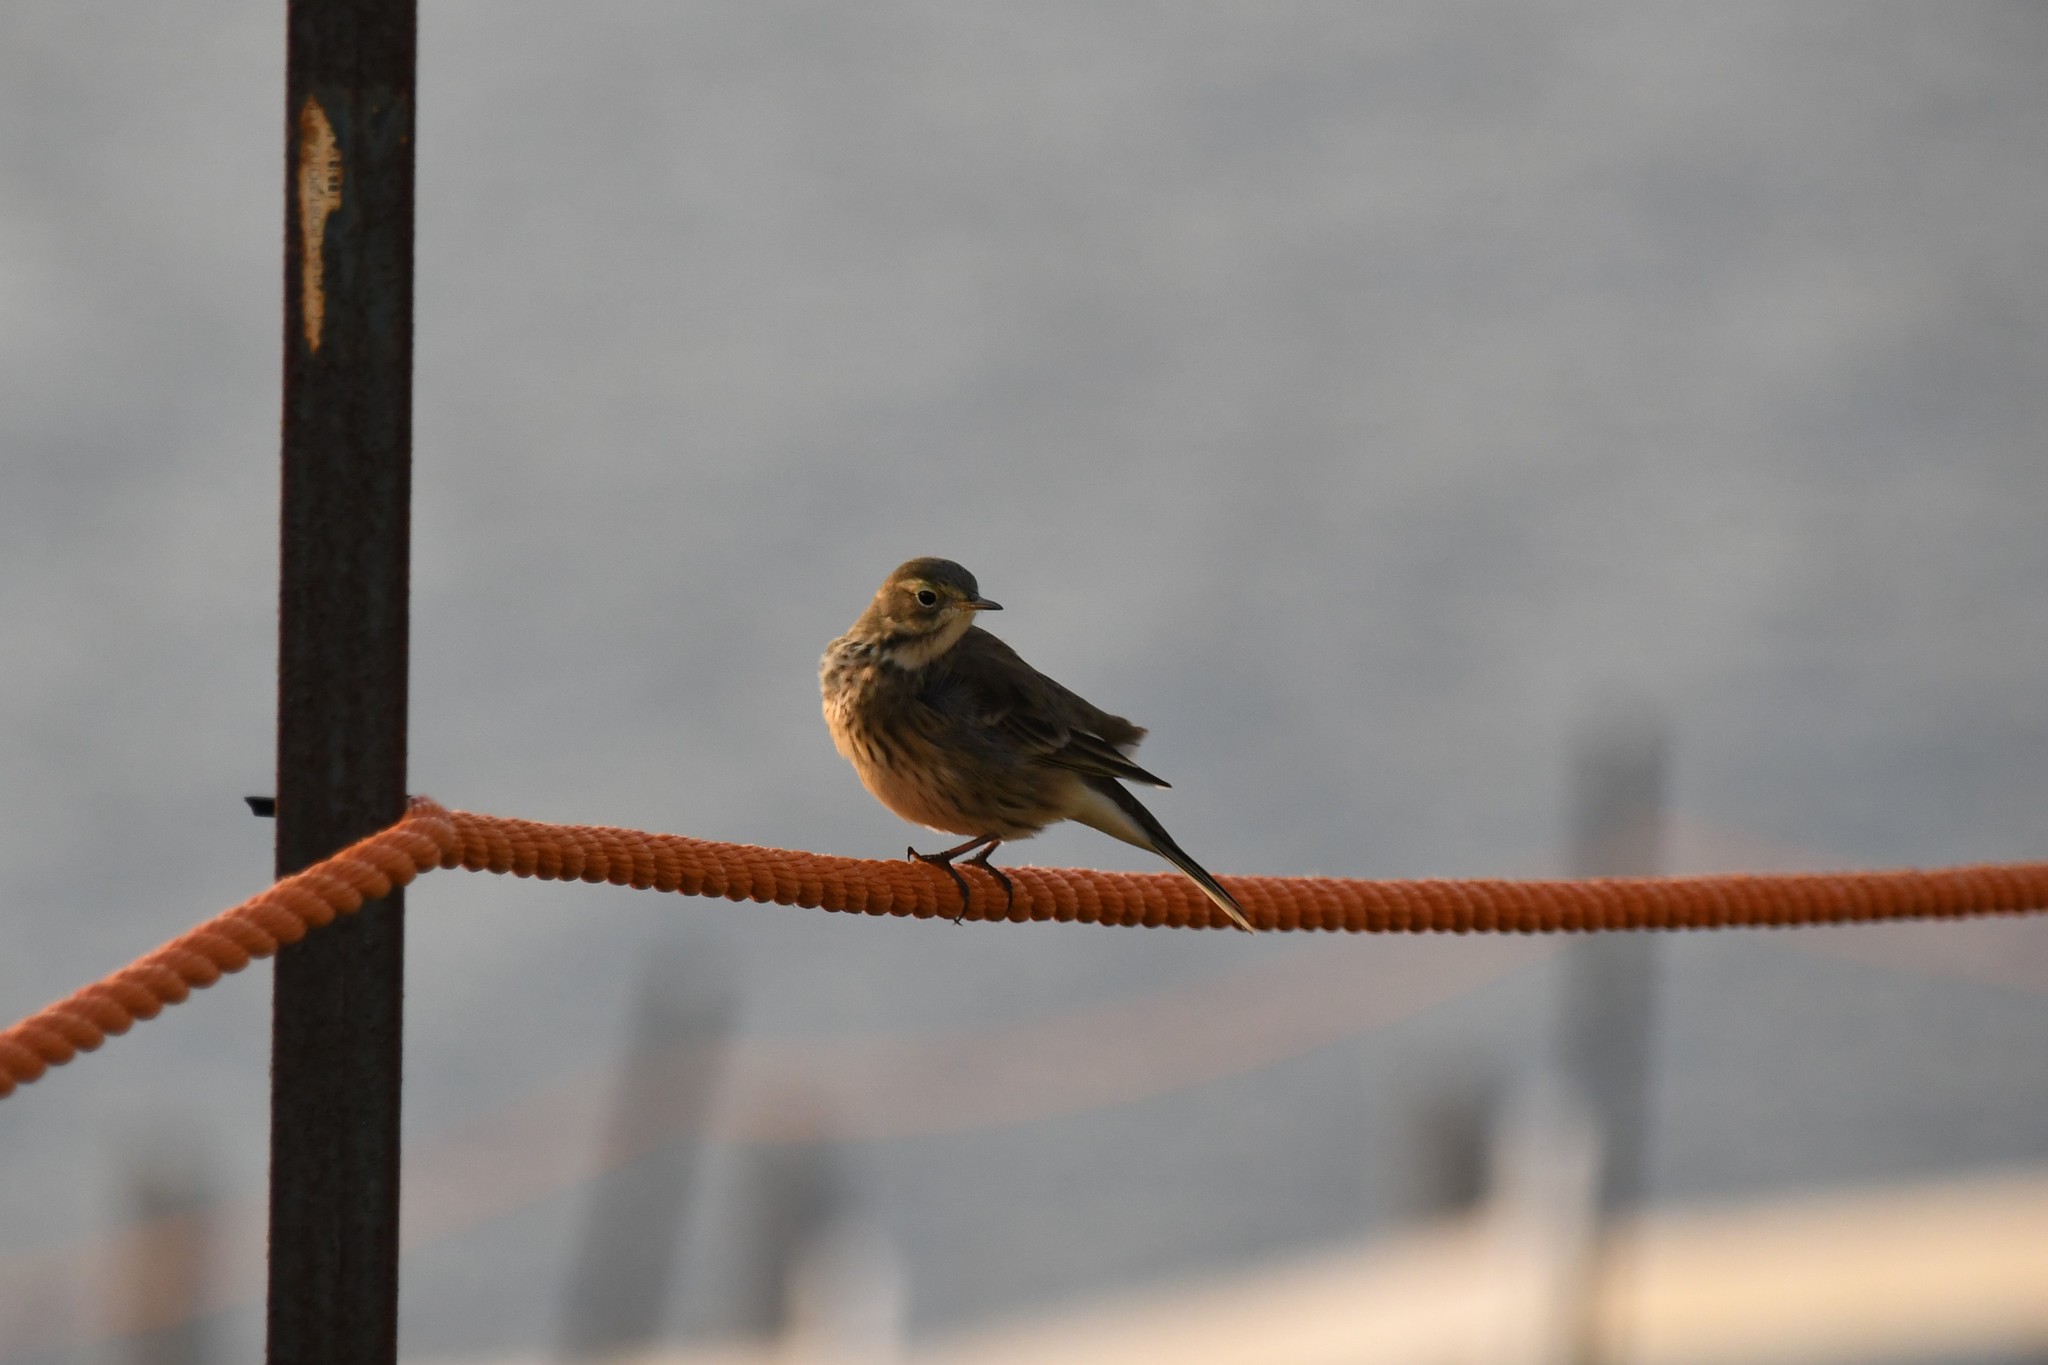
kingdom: Animalia
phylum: Chordata
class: Aves
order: Passeriformes
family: Motacillidae
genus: Anthus
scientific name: Anthus rubescens
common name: Buff-bellied pipit
